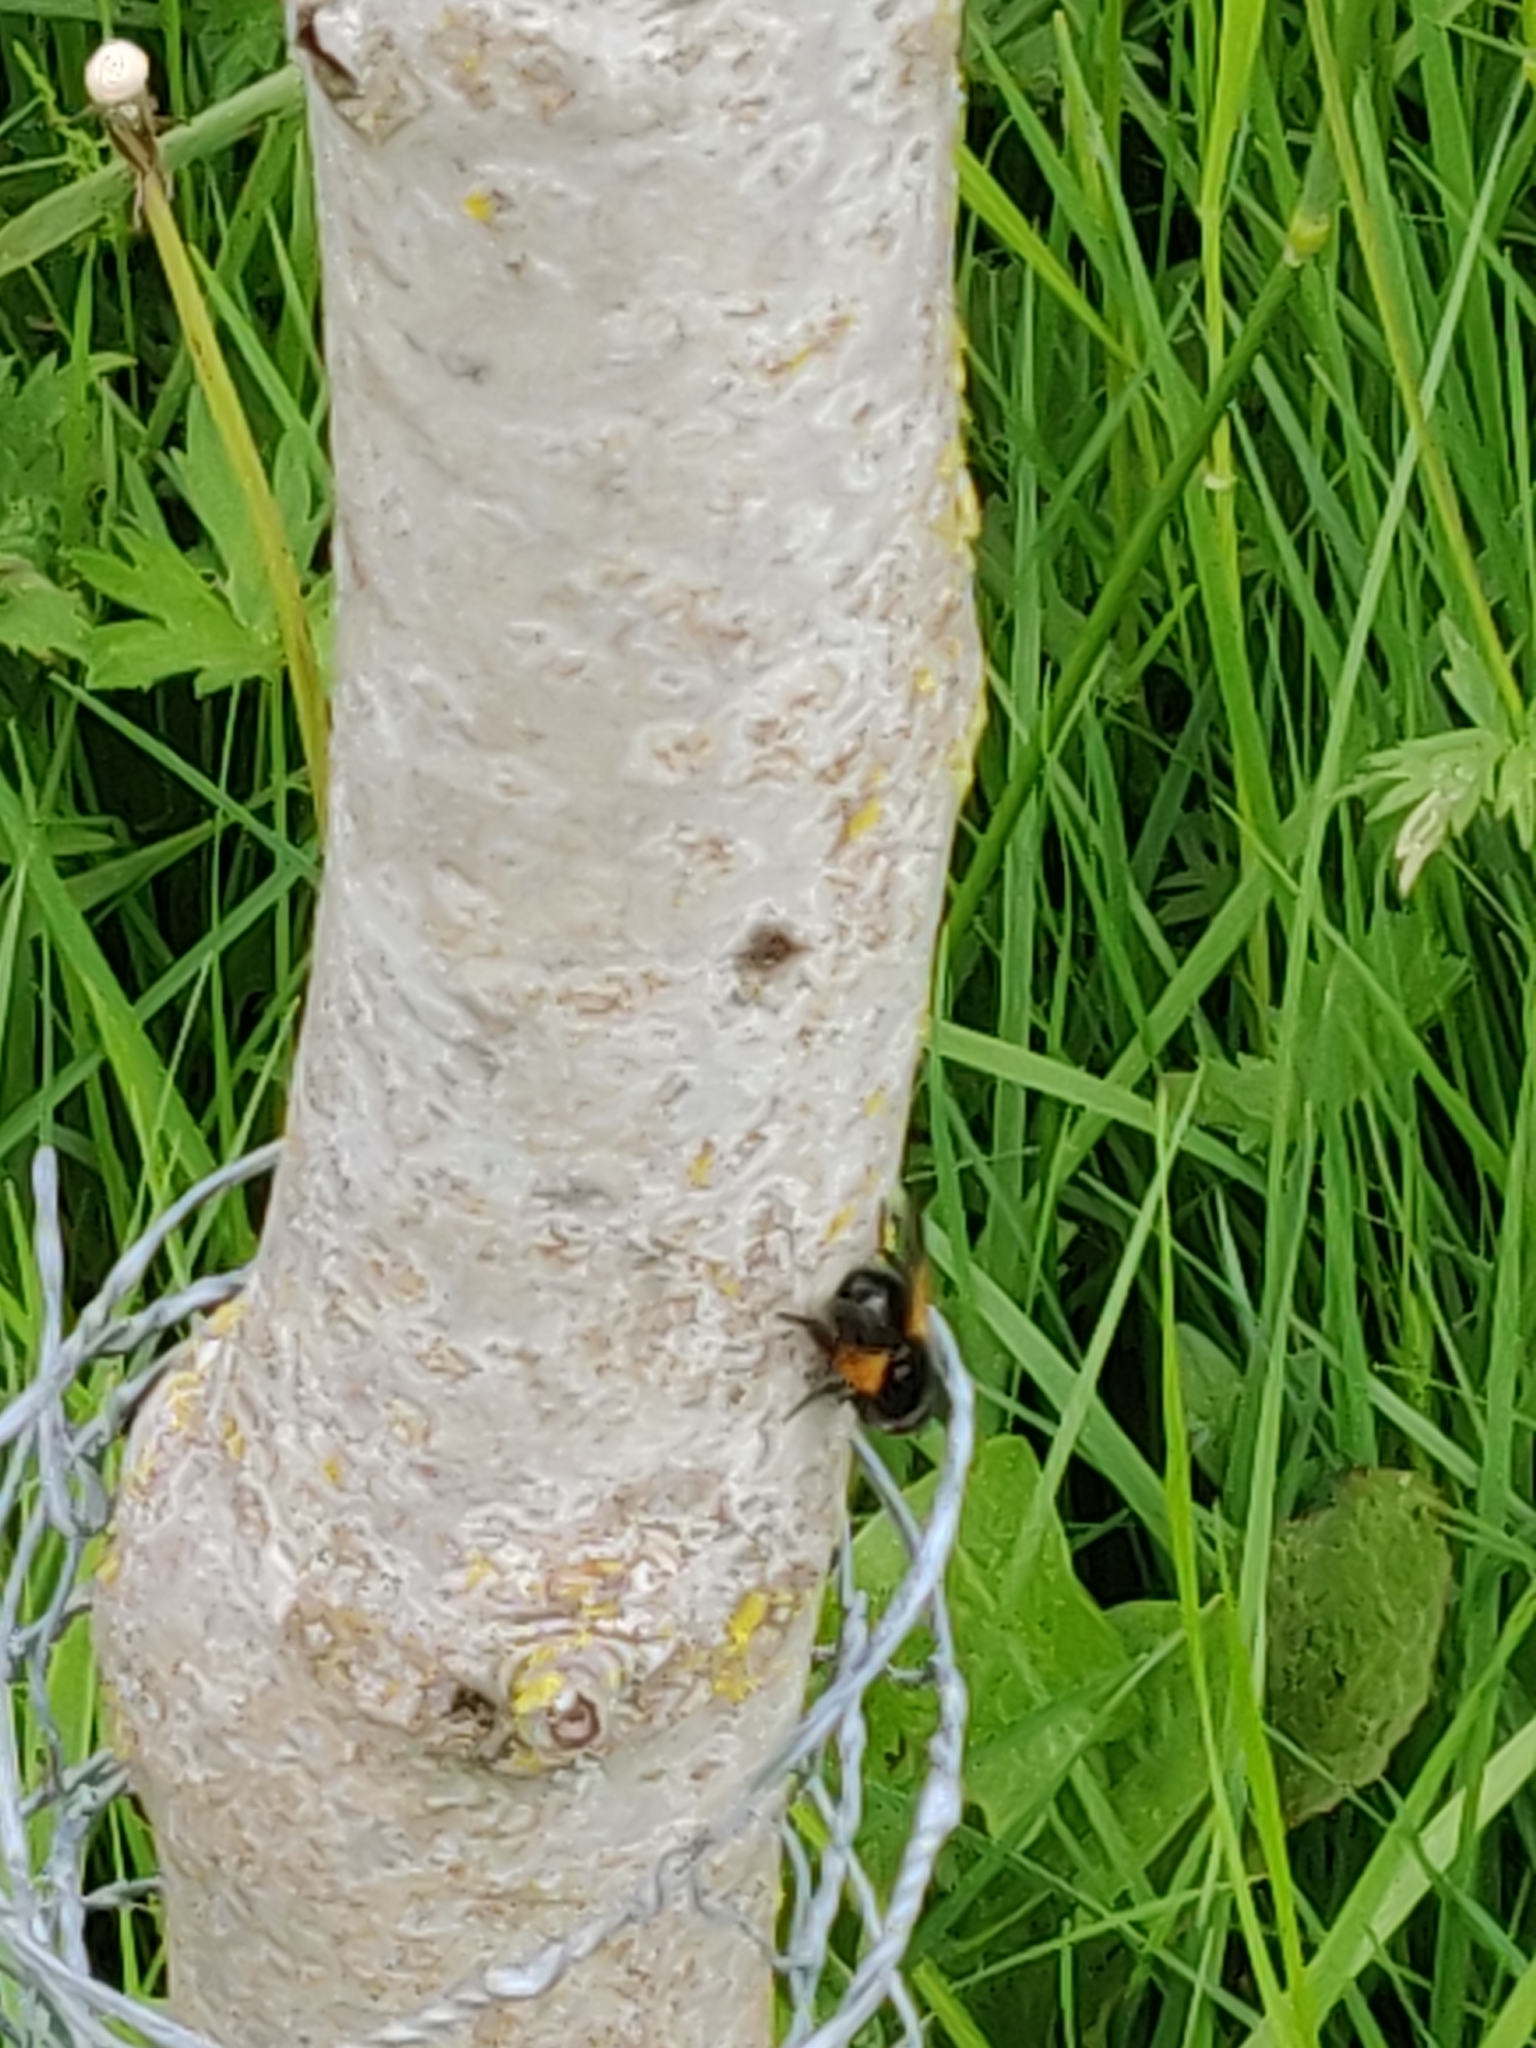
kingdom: Animalia
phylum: Arthropoda
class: Insecta
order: Diptera
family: Muscidae
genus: Mesembrina
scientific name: Mesembrina meridiana
